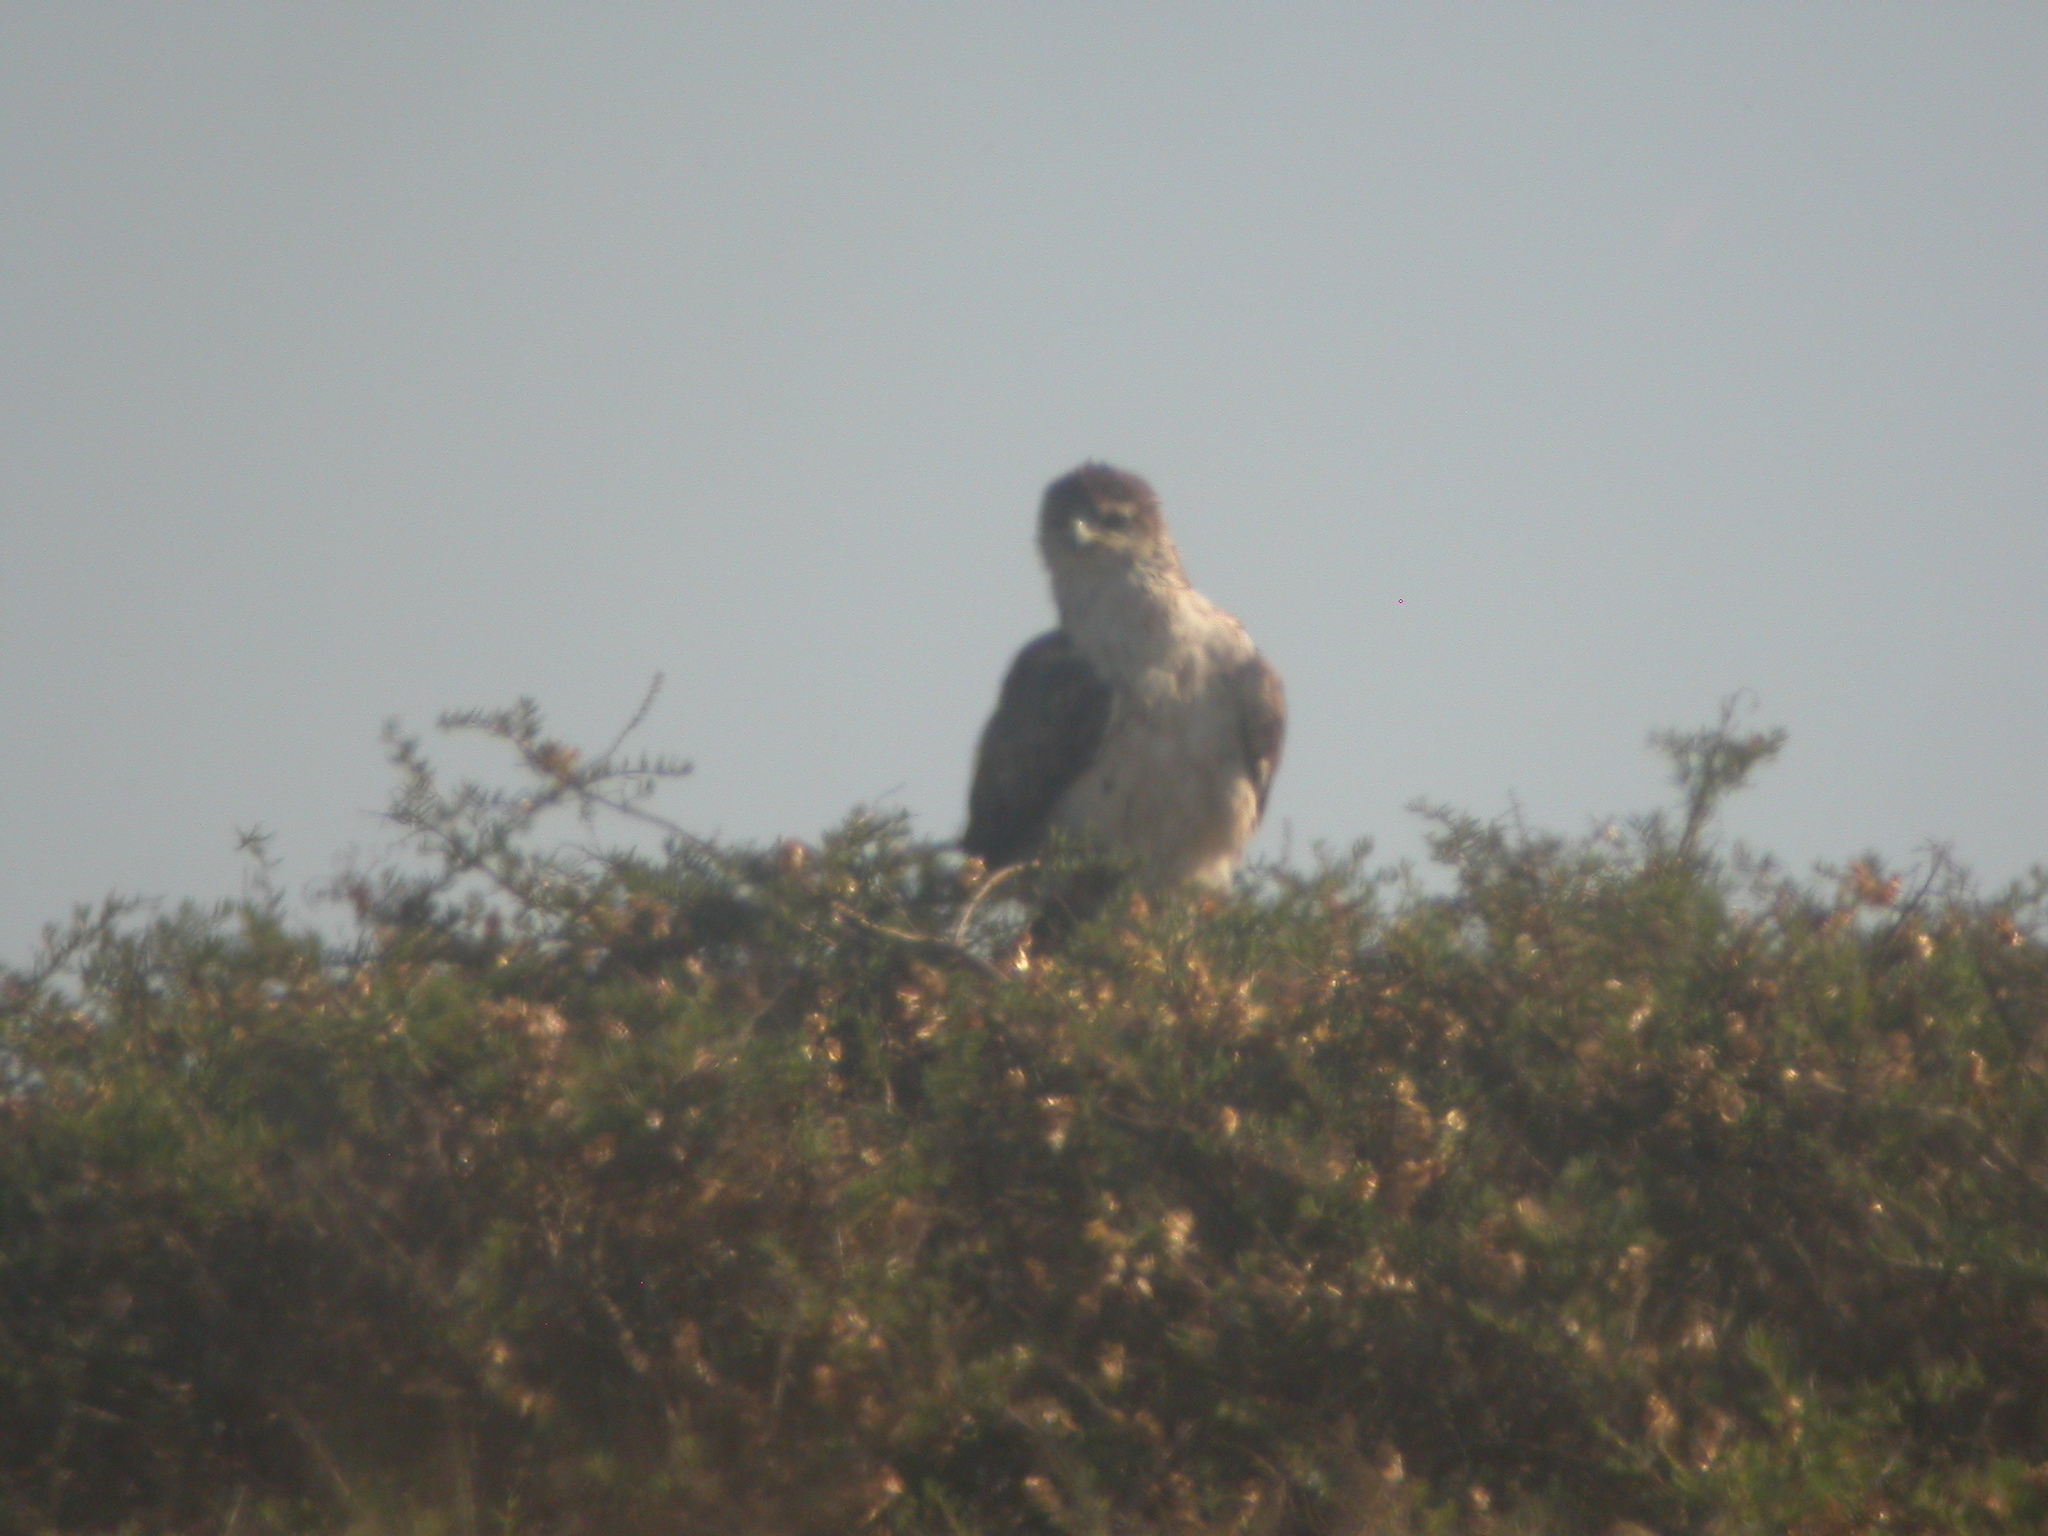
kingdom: Animalia
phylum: Chordata
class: Aves
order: Accipitriformes
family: Accipitridae
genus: Aquila
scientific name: Aquila fasciata
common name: Bonelli's eagle
